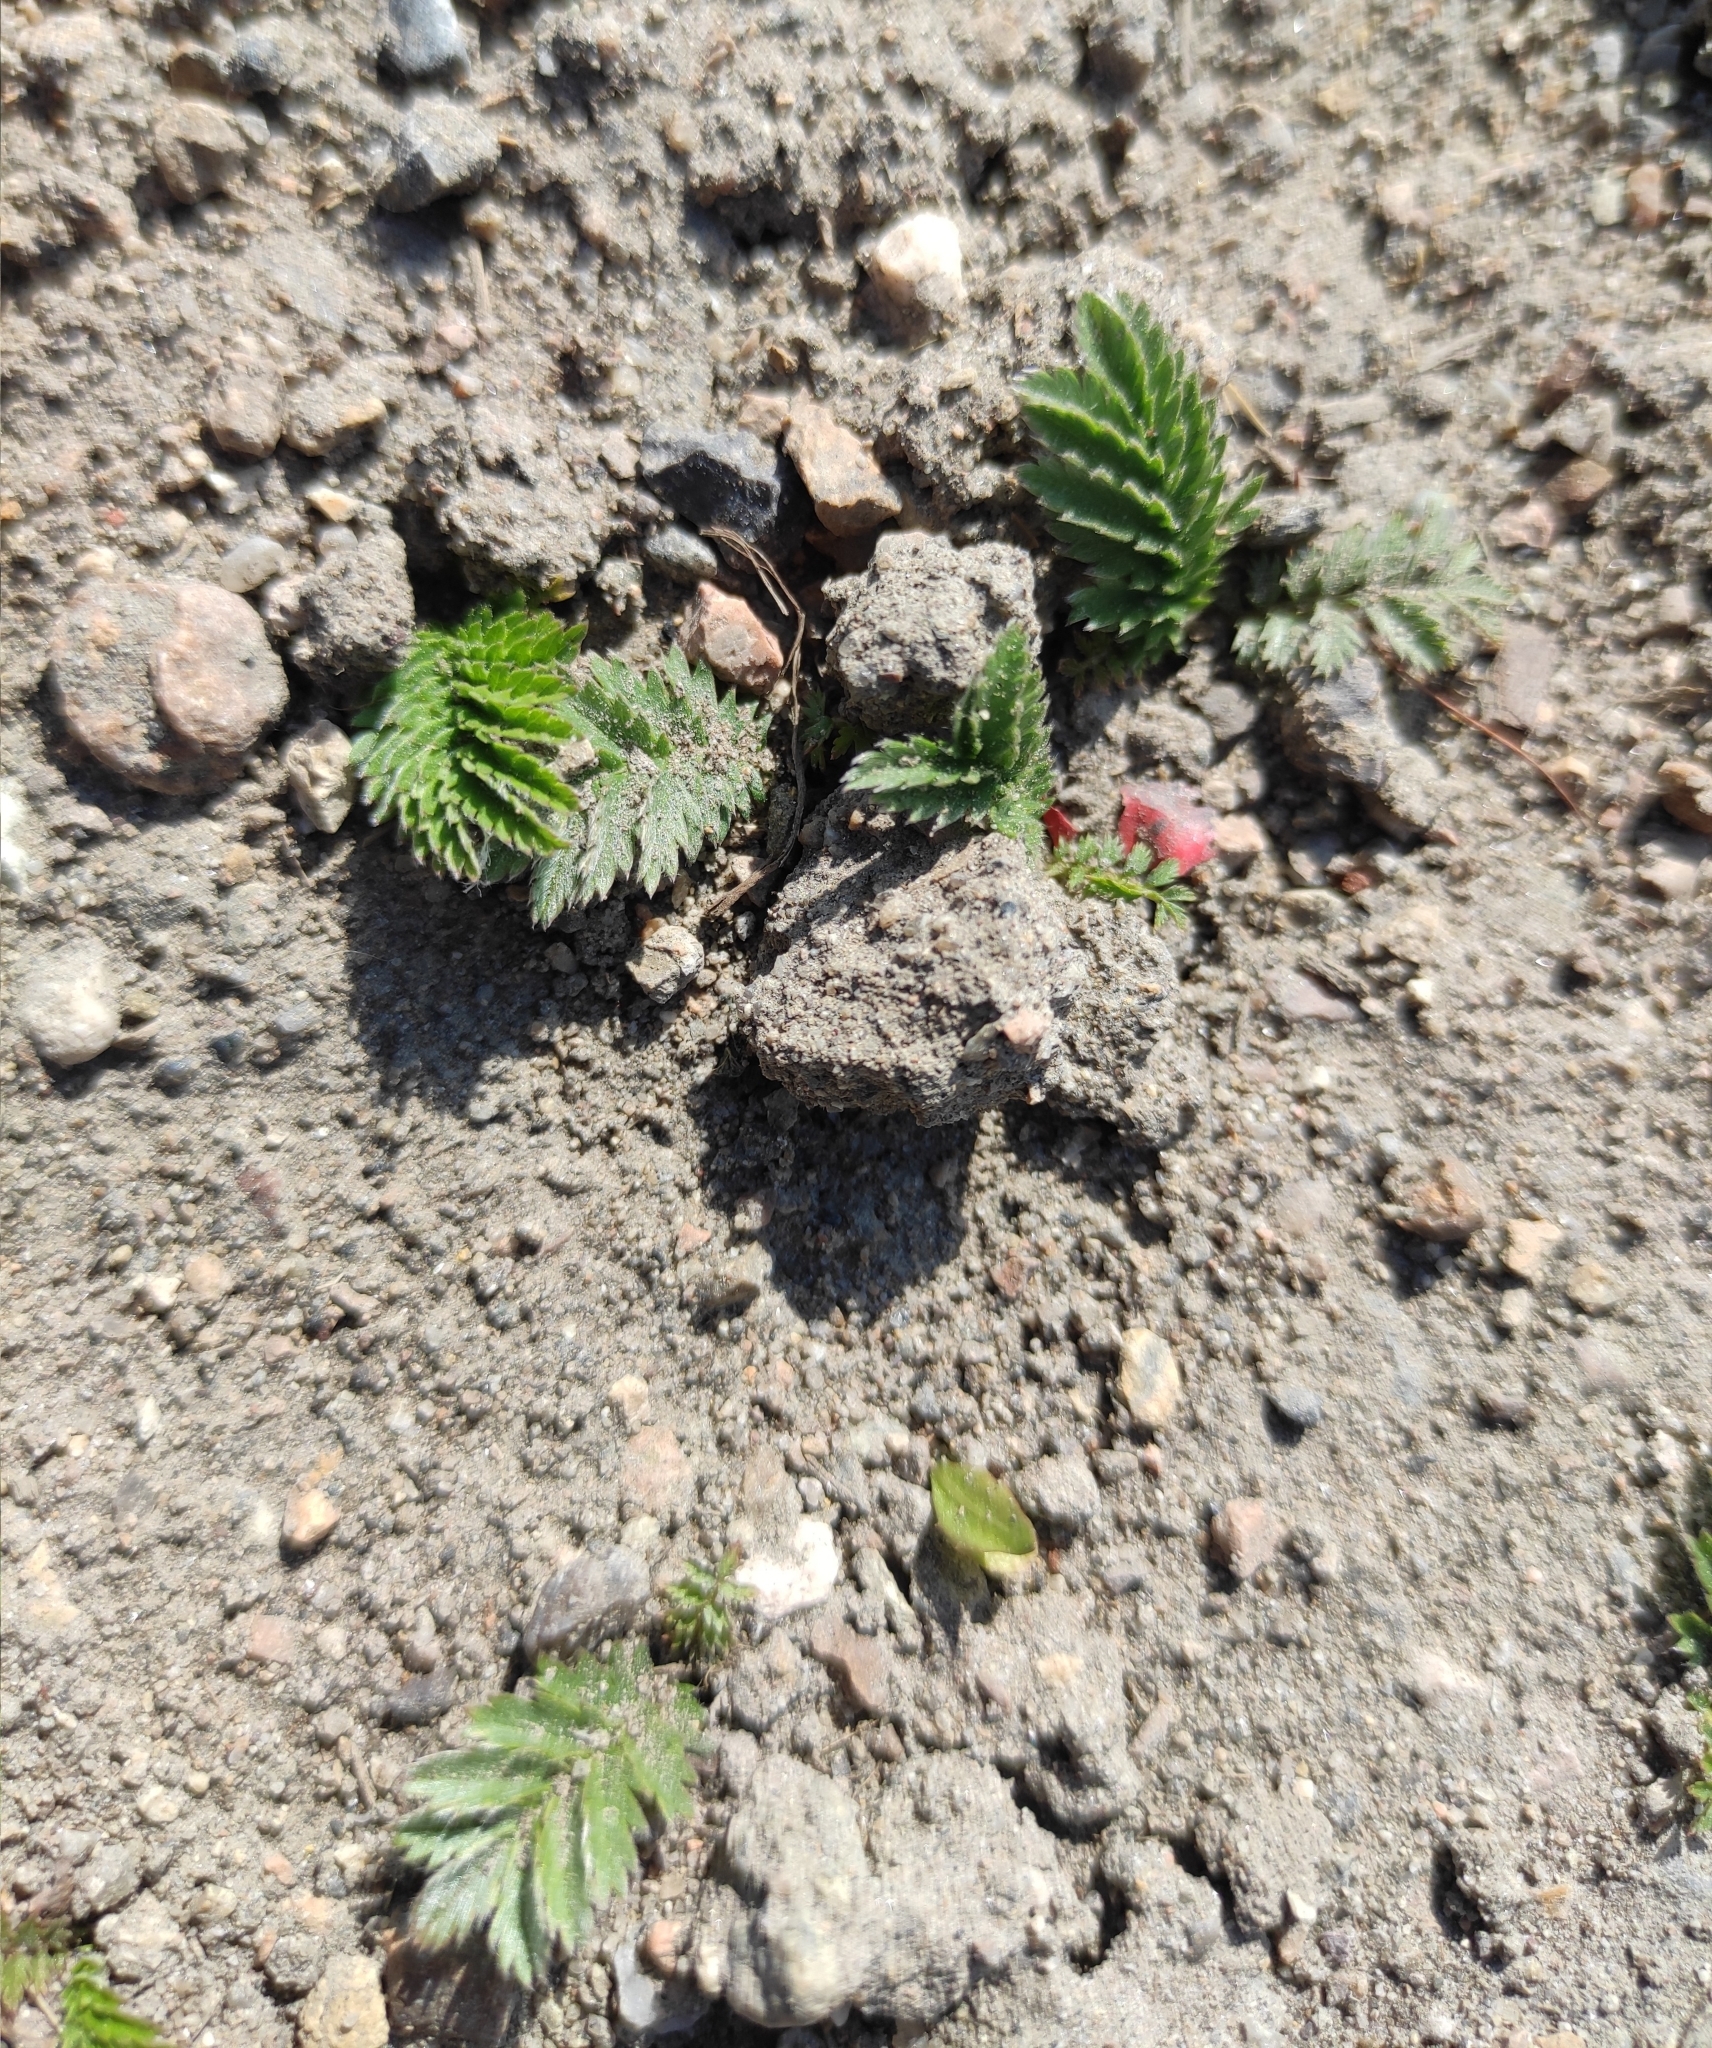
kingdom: Plantae
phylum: Tracheophyta
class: Magnoliopsida
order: Rosales
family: Rosaceae
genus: Argentina
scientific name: Argentina anserina
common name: Common silverweed
